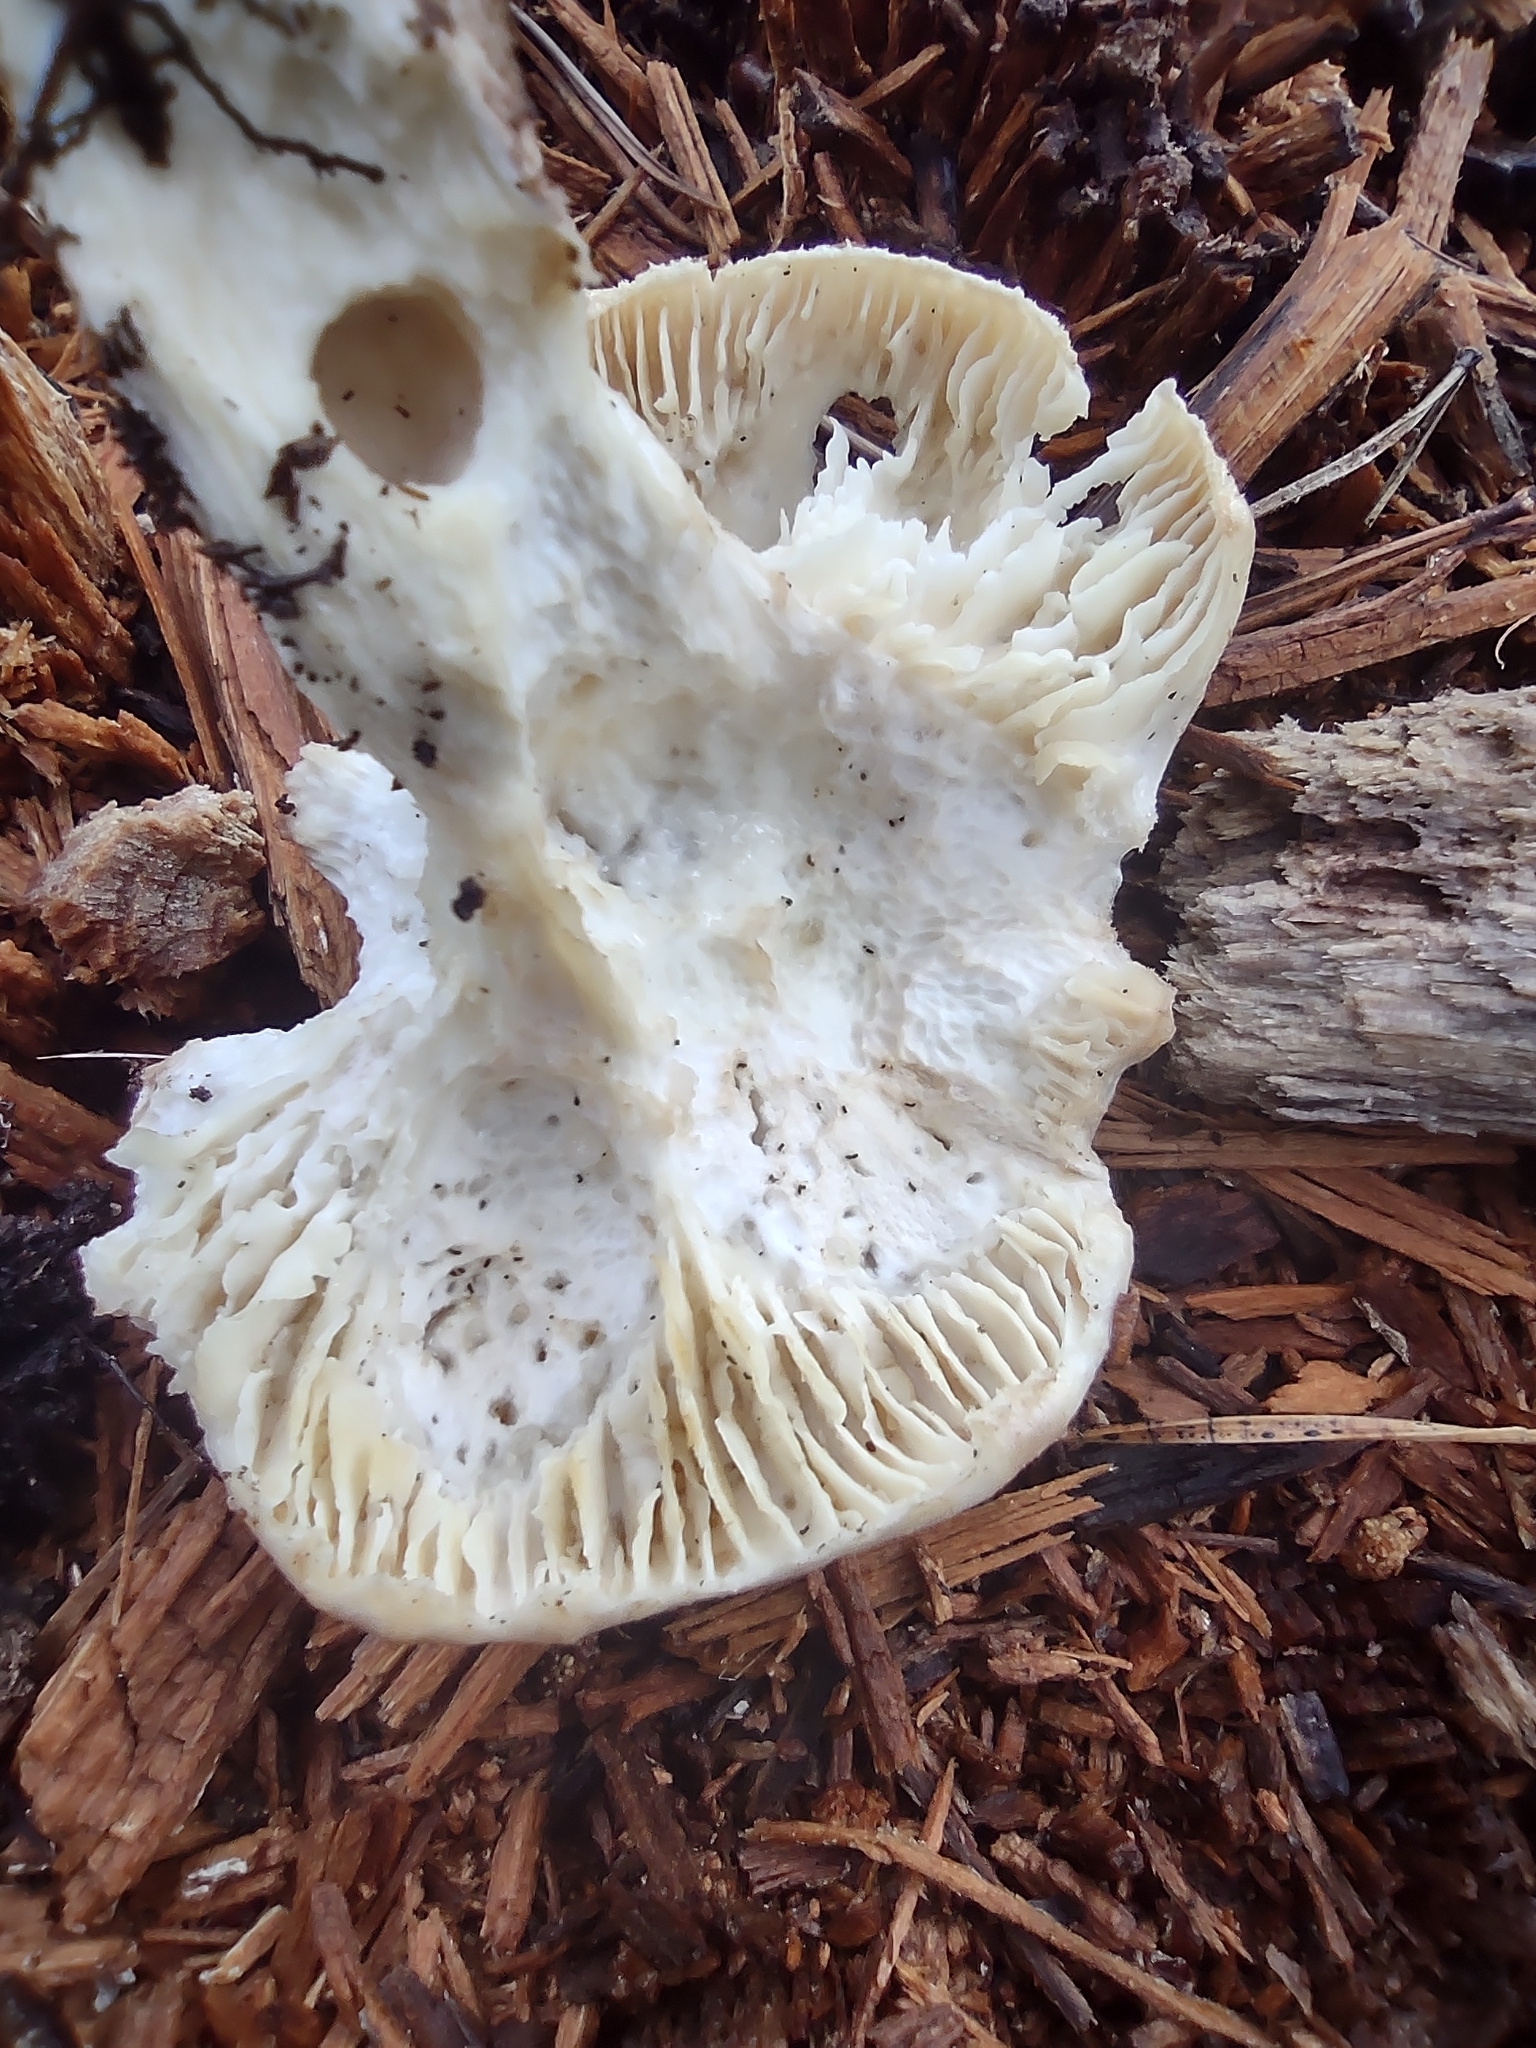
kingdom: Fungi
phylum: Basidiomycota
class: Agaricomycetes
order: Gloeophyllales
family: Gloeophyllaceae
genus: Neolentinus
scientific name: Neolentinus lepideus
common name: Scaly sawgill
